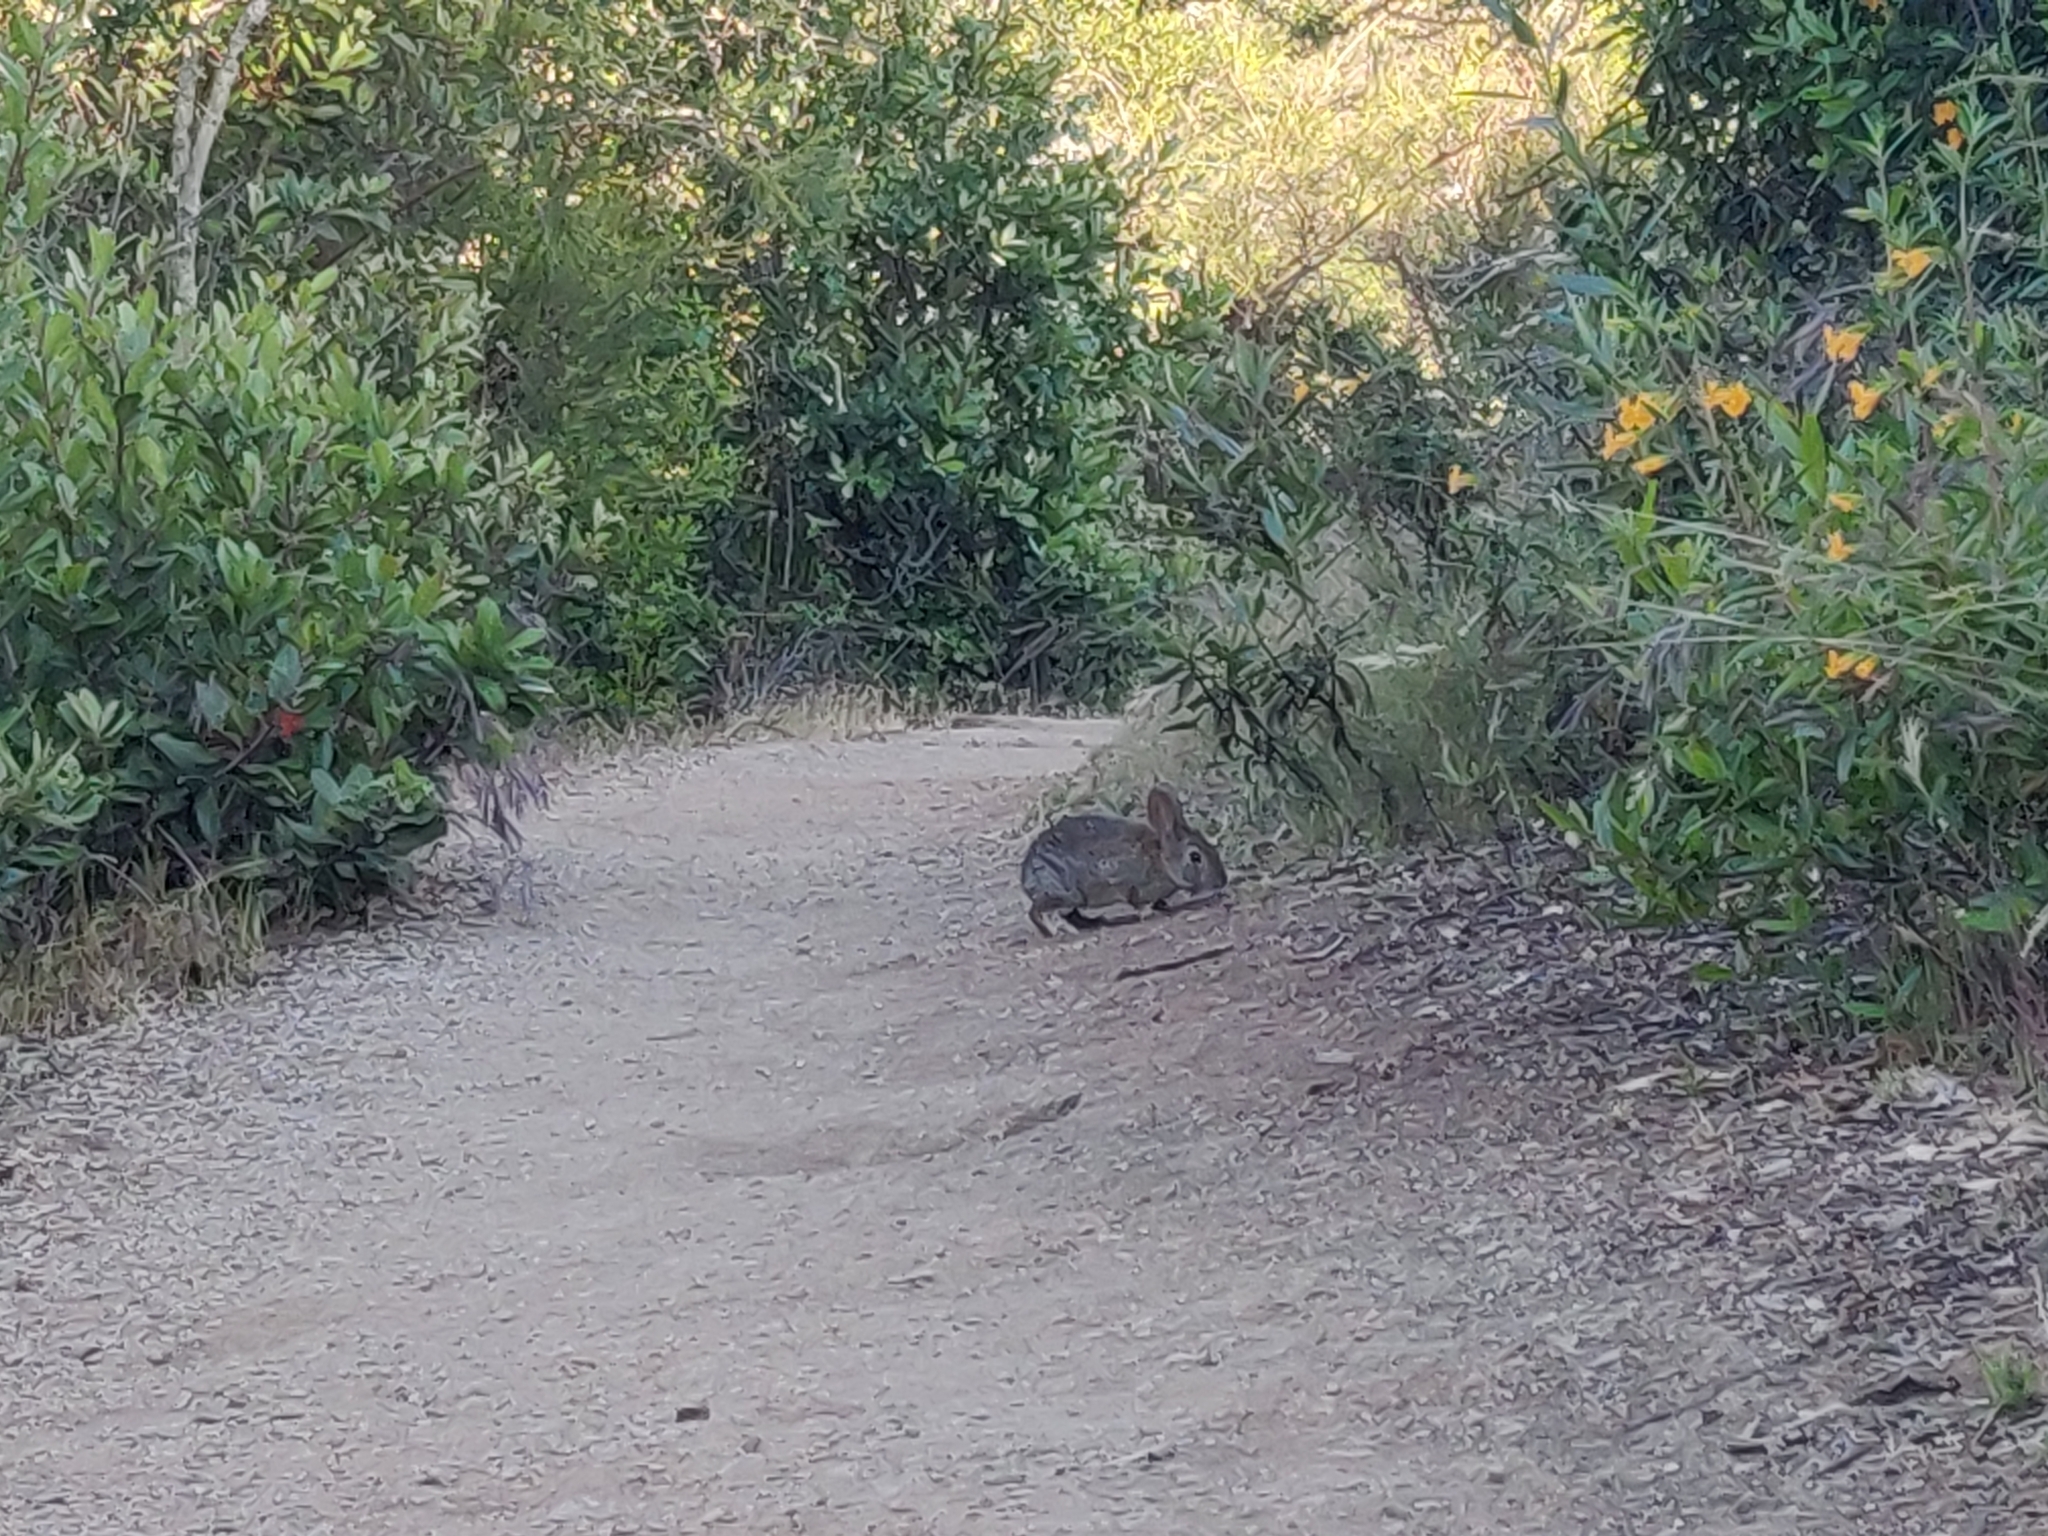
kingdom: Animalia
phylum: Chordata
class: Mammalia
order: Lagomorpha
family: Leporidae
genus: Sylvilagus
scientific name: Sylvilagus bachmani
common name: Brush rabbit
